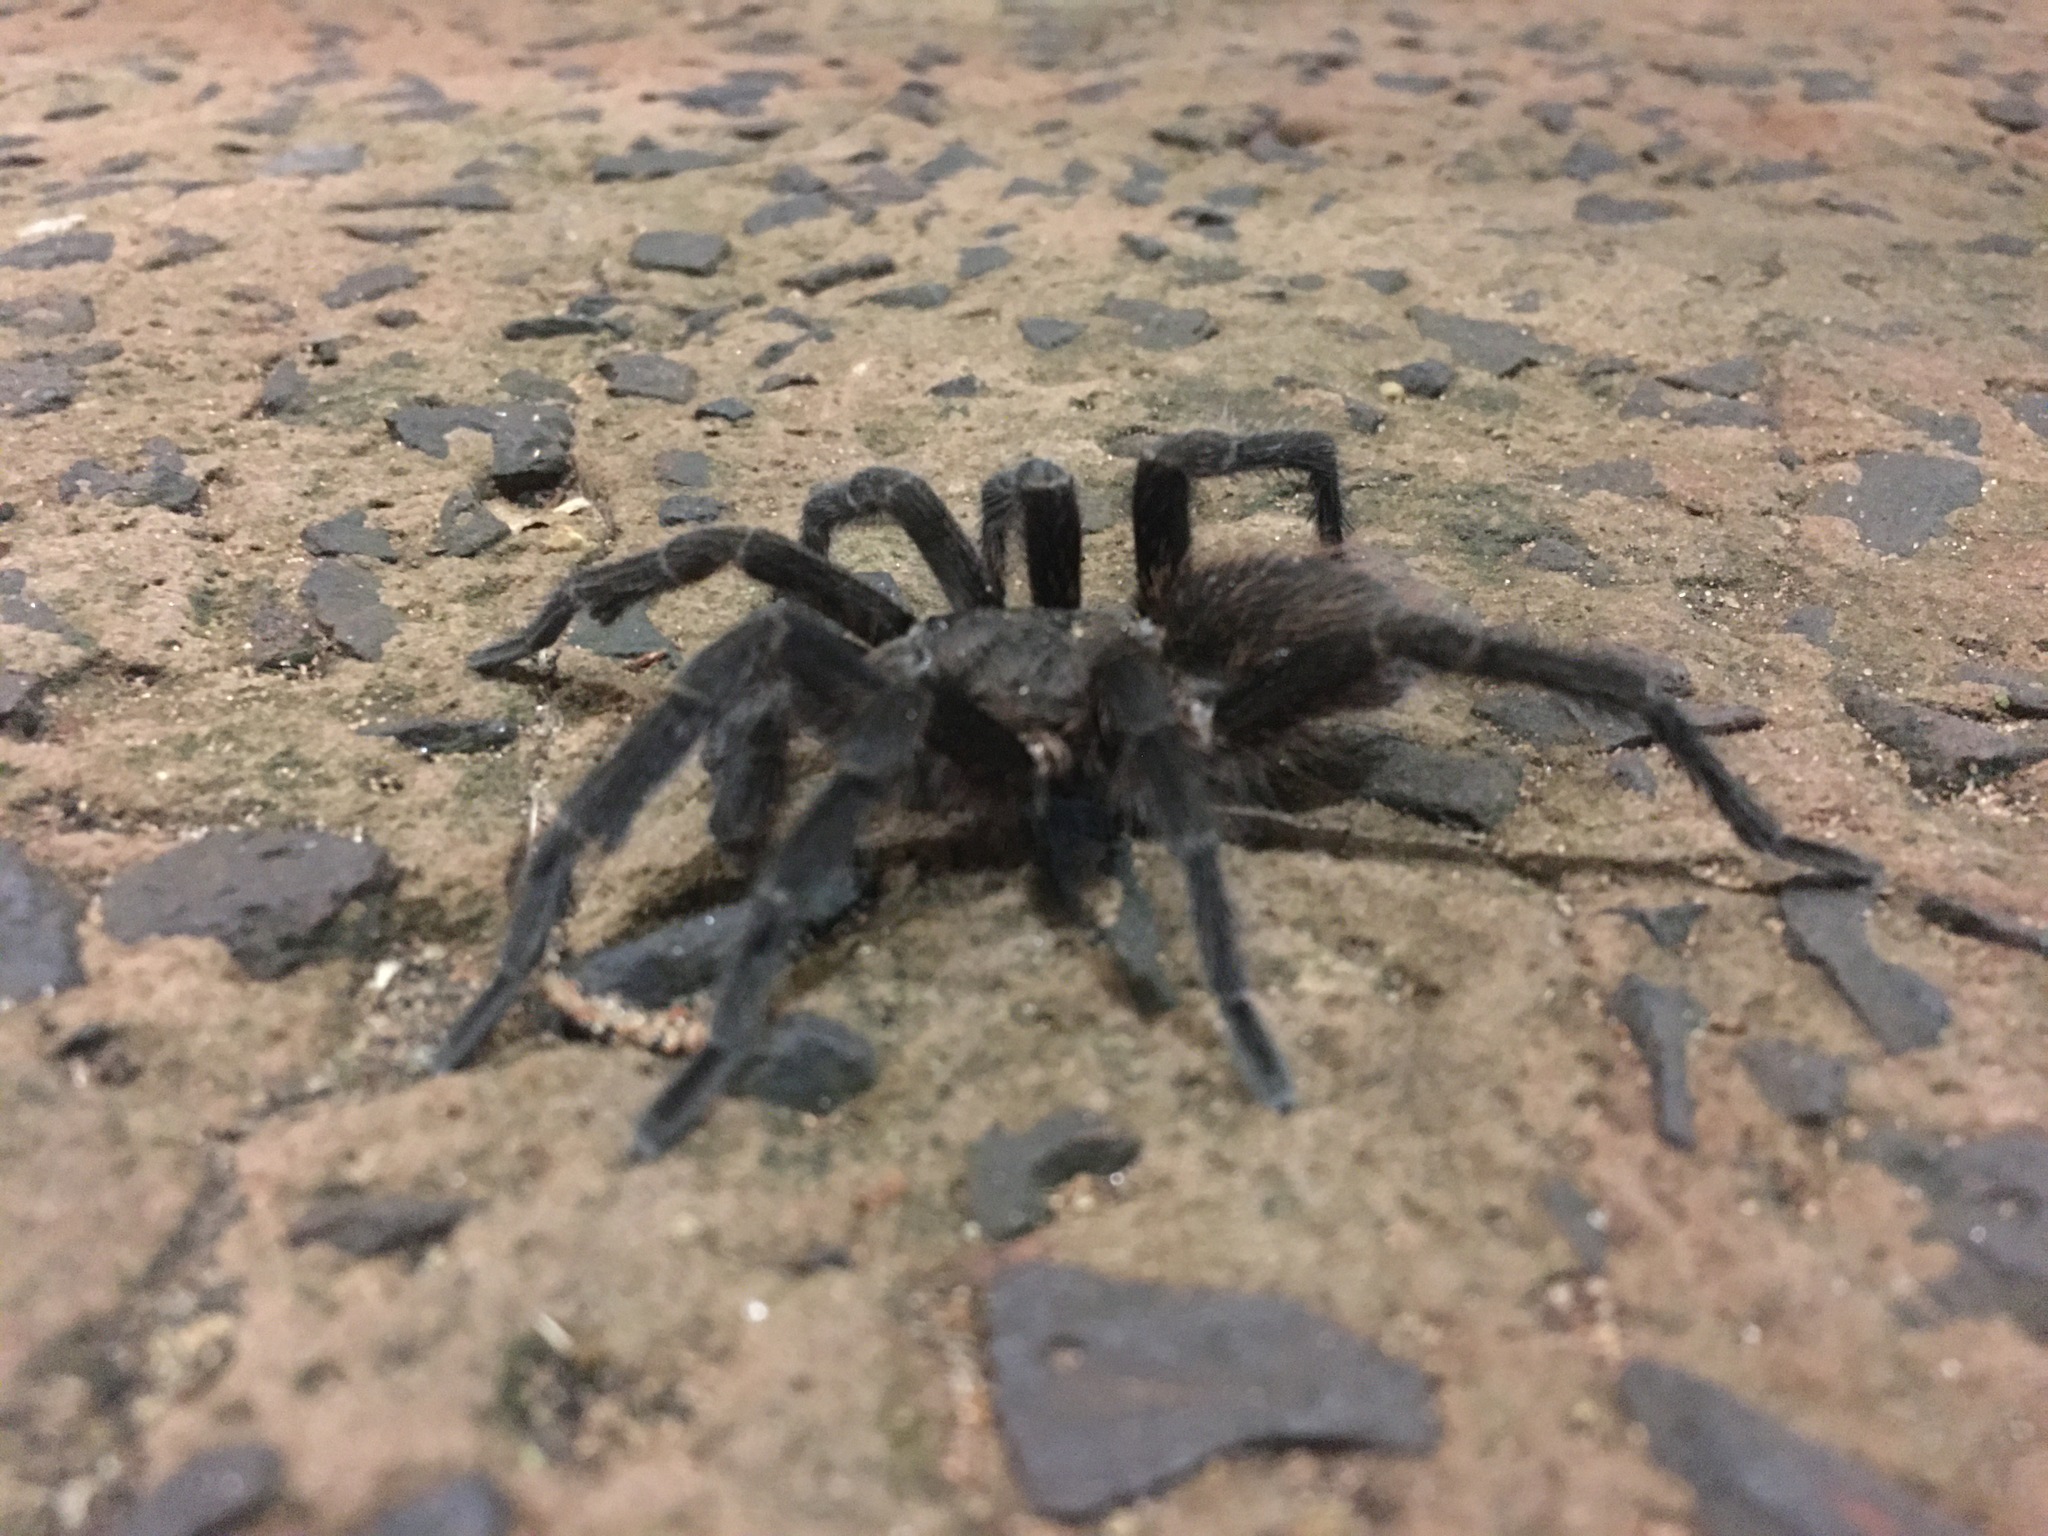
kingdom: Animalia
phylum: Arthropoda
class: Arachnida
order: Araneae
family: Theraphosidae
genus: Pterinopelma
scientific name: Pterinopelma longisternale
